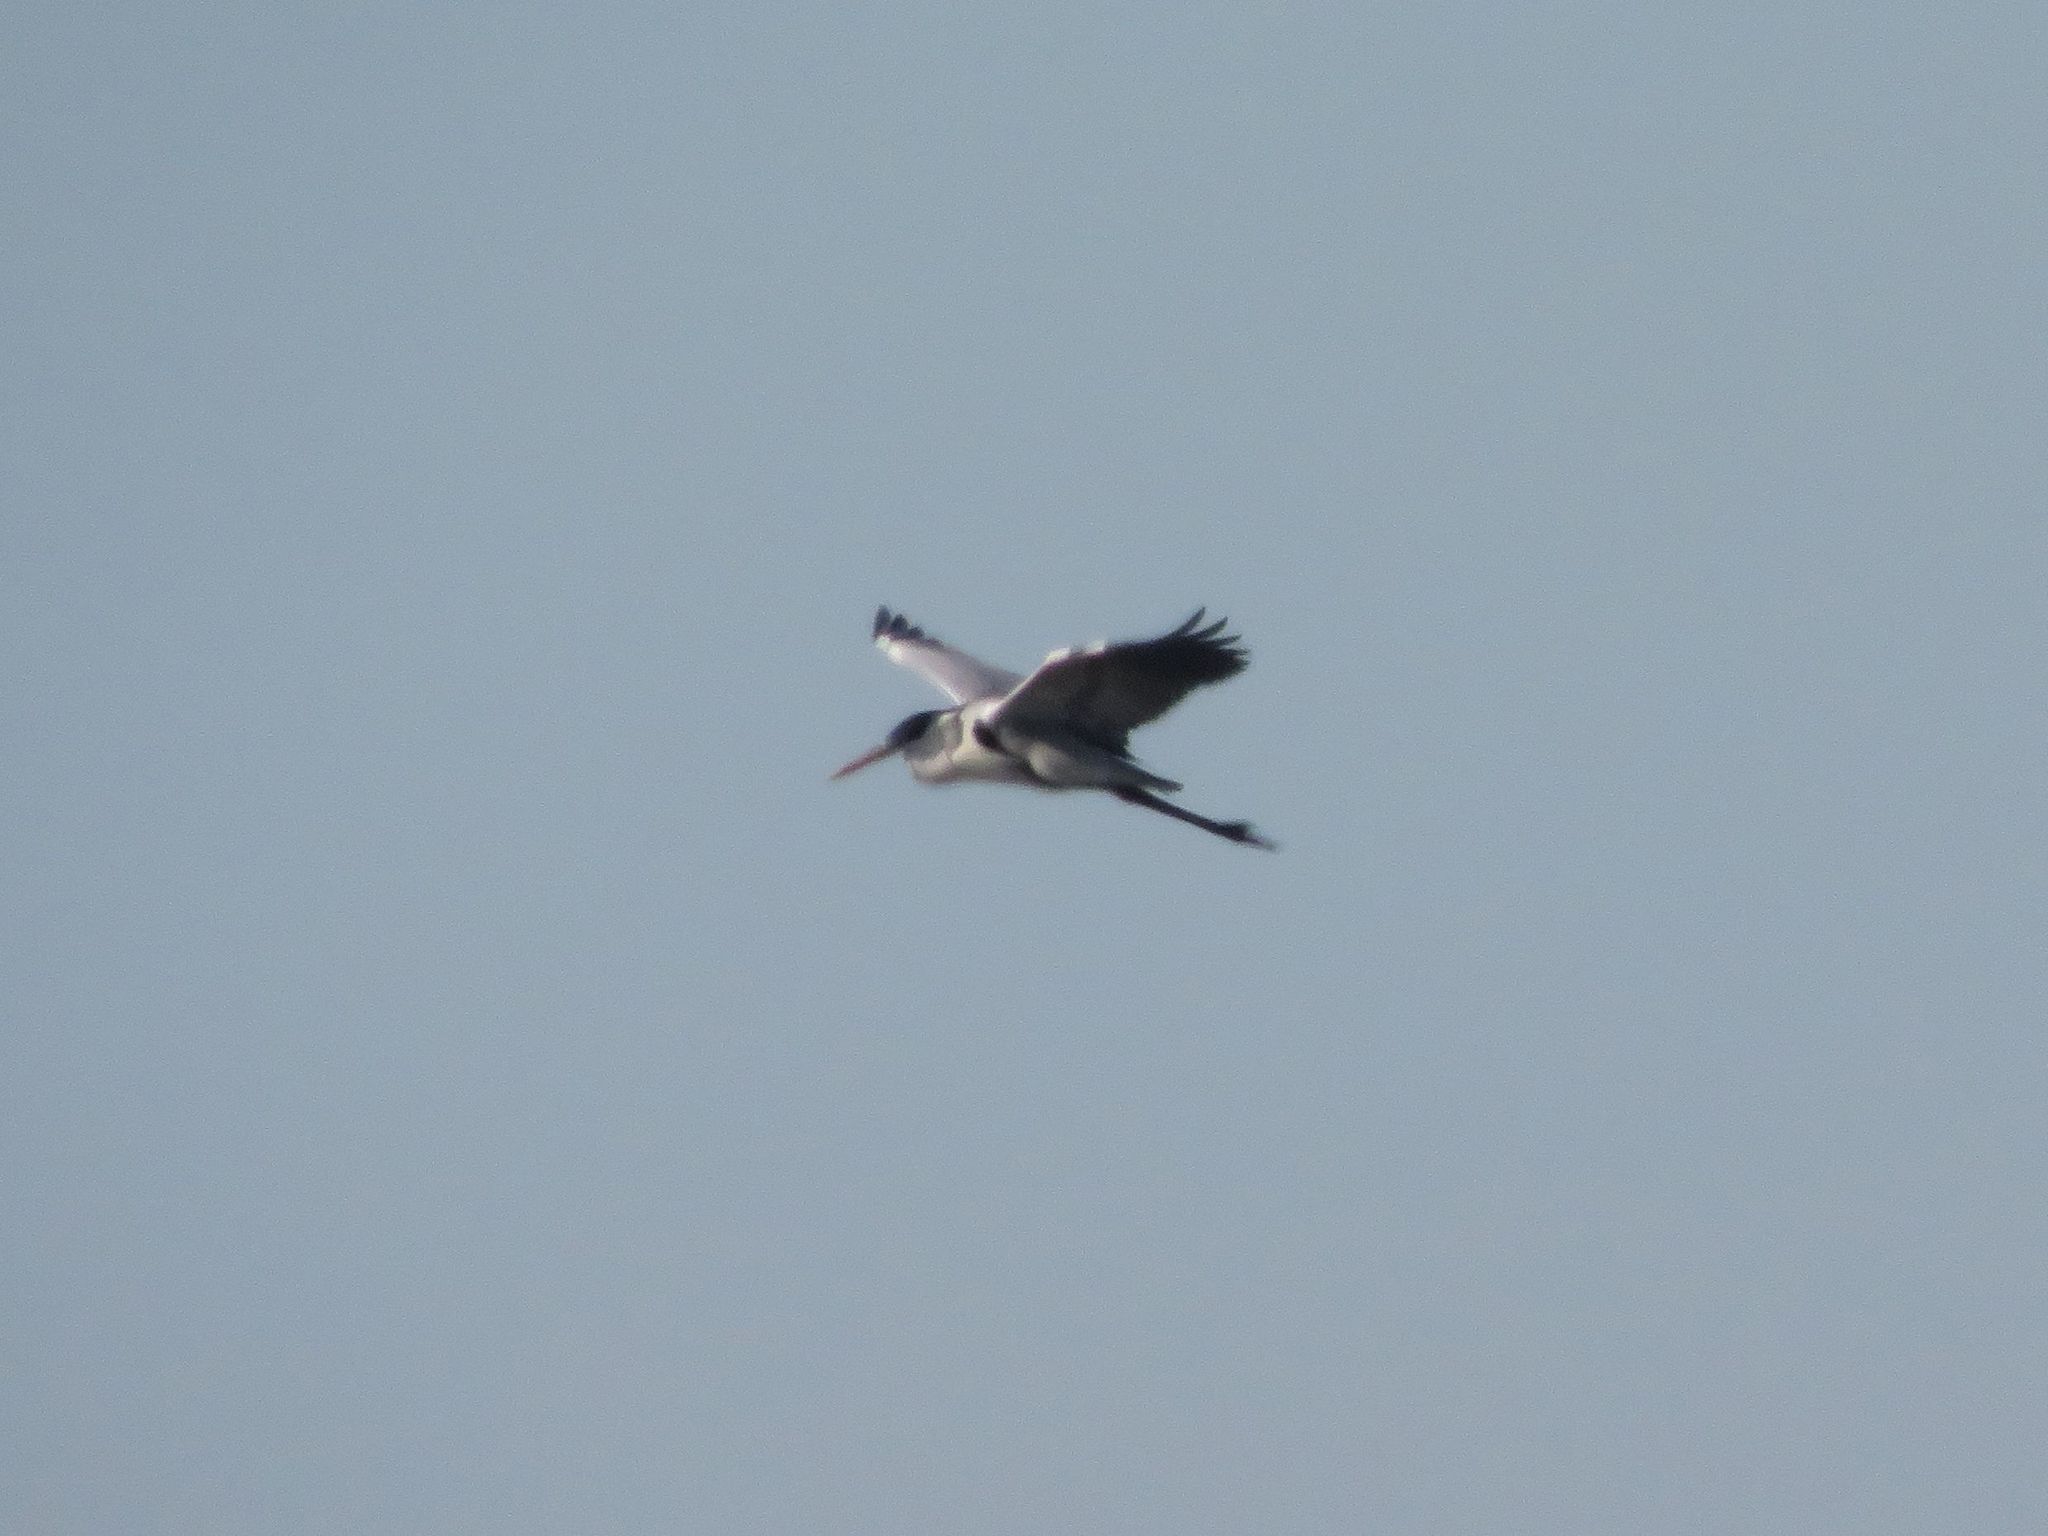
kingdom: Animalia
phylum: Chordata
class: Aves
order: Pelecaniformes
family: Ardeidae
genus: Ardea
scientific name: Ardea cocoi
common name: Cocoi heron
